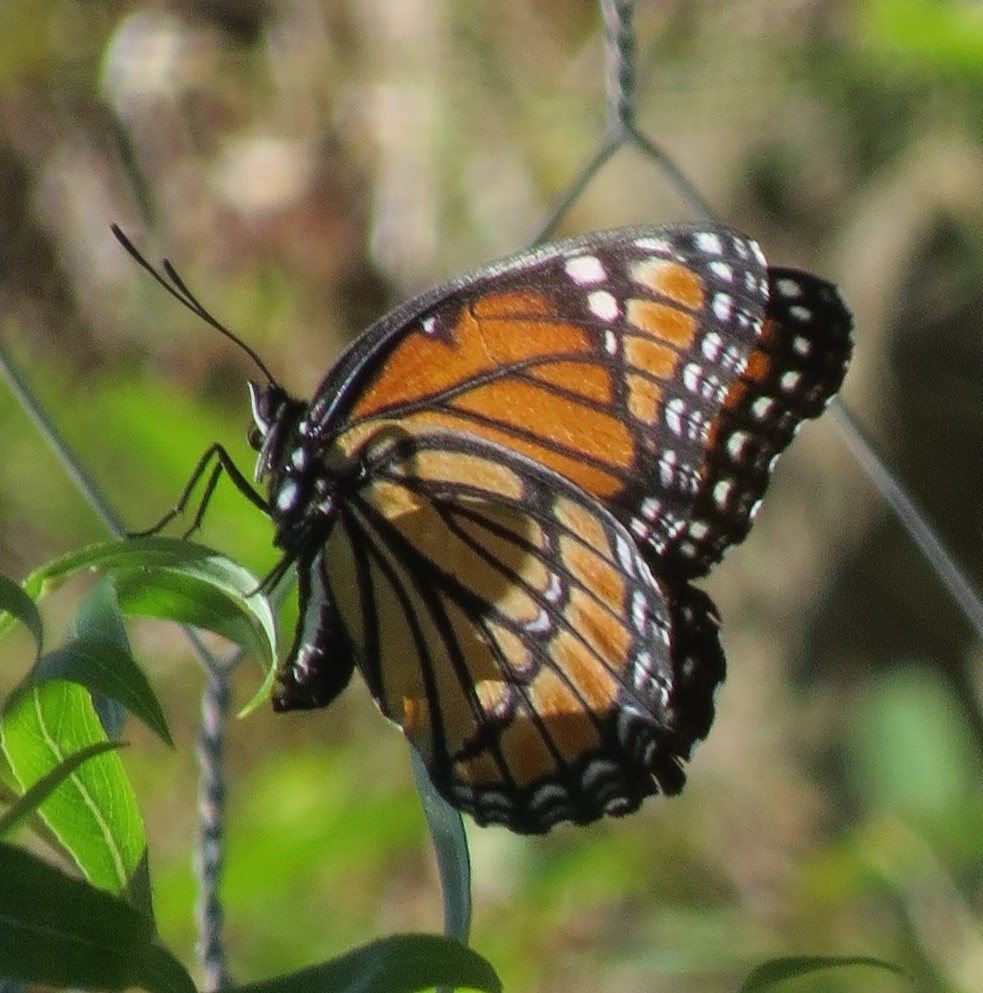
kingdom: Animalia
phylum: Arthropoda
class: Insecta
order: Lepidoptera
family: Nymphalidae
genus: Limenitis
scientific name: Limenitis archippus
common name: Viceroy
